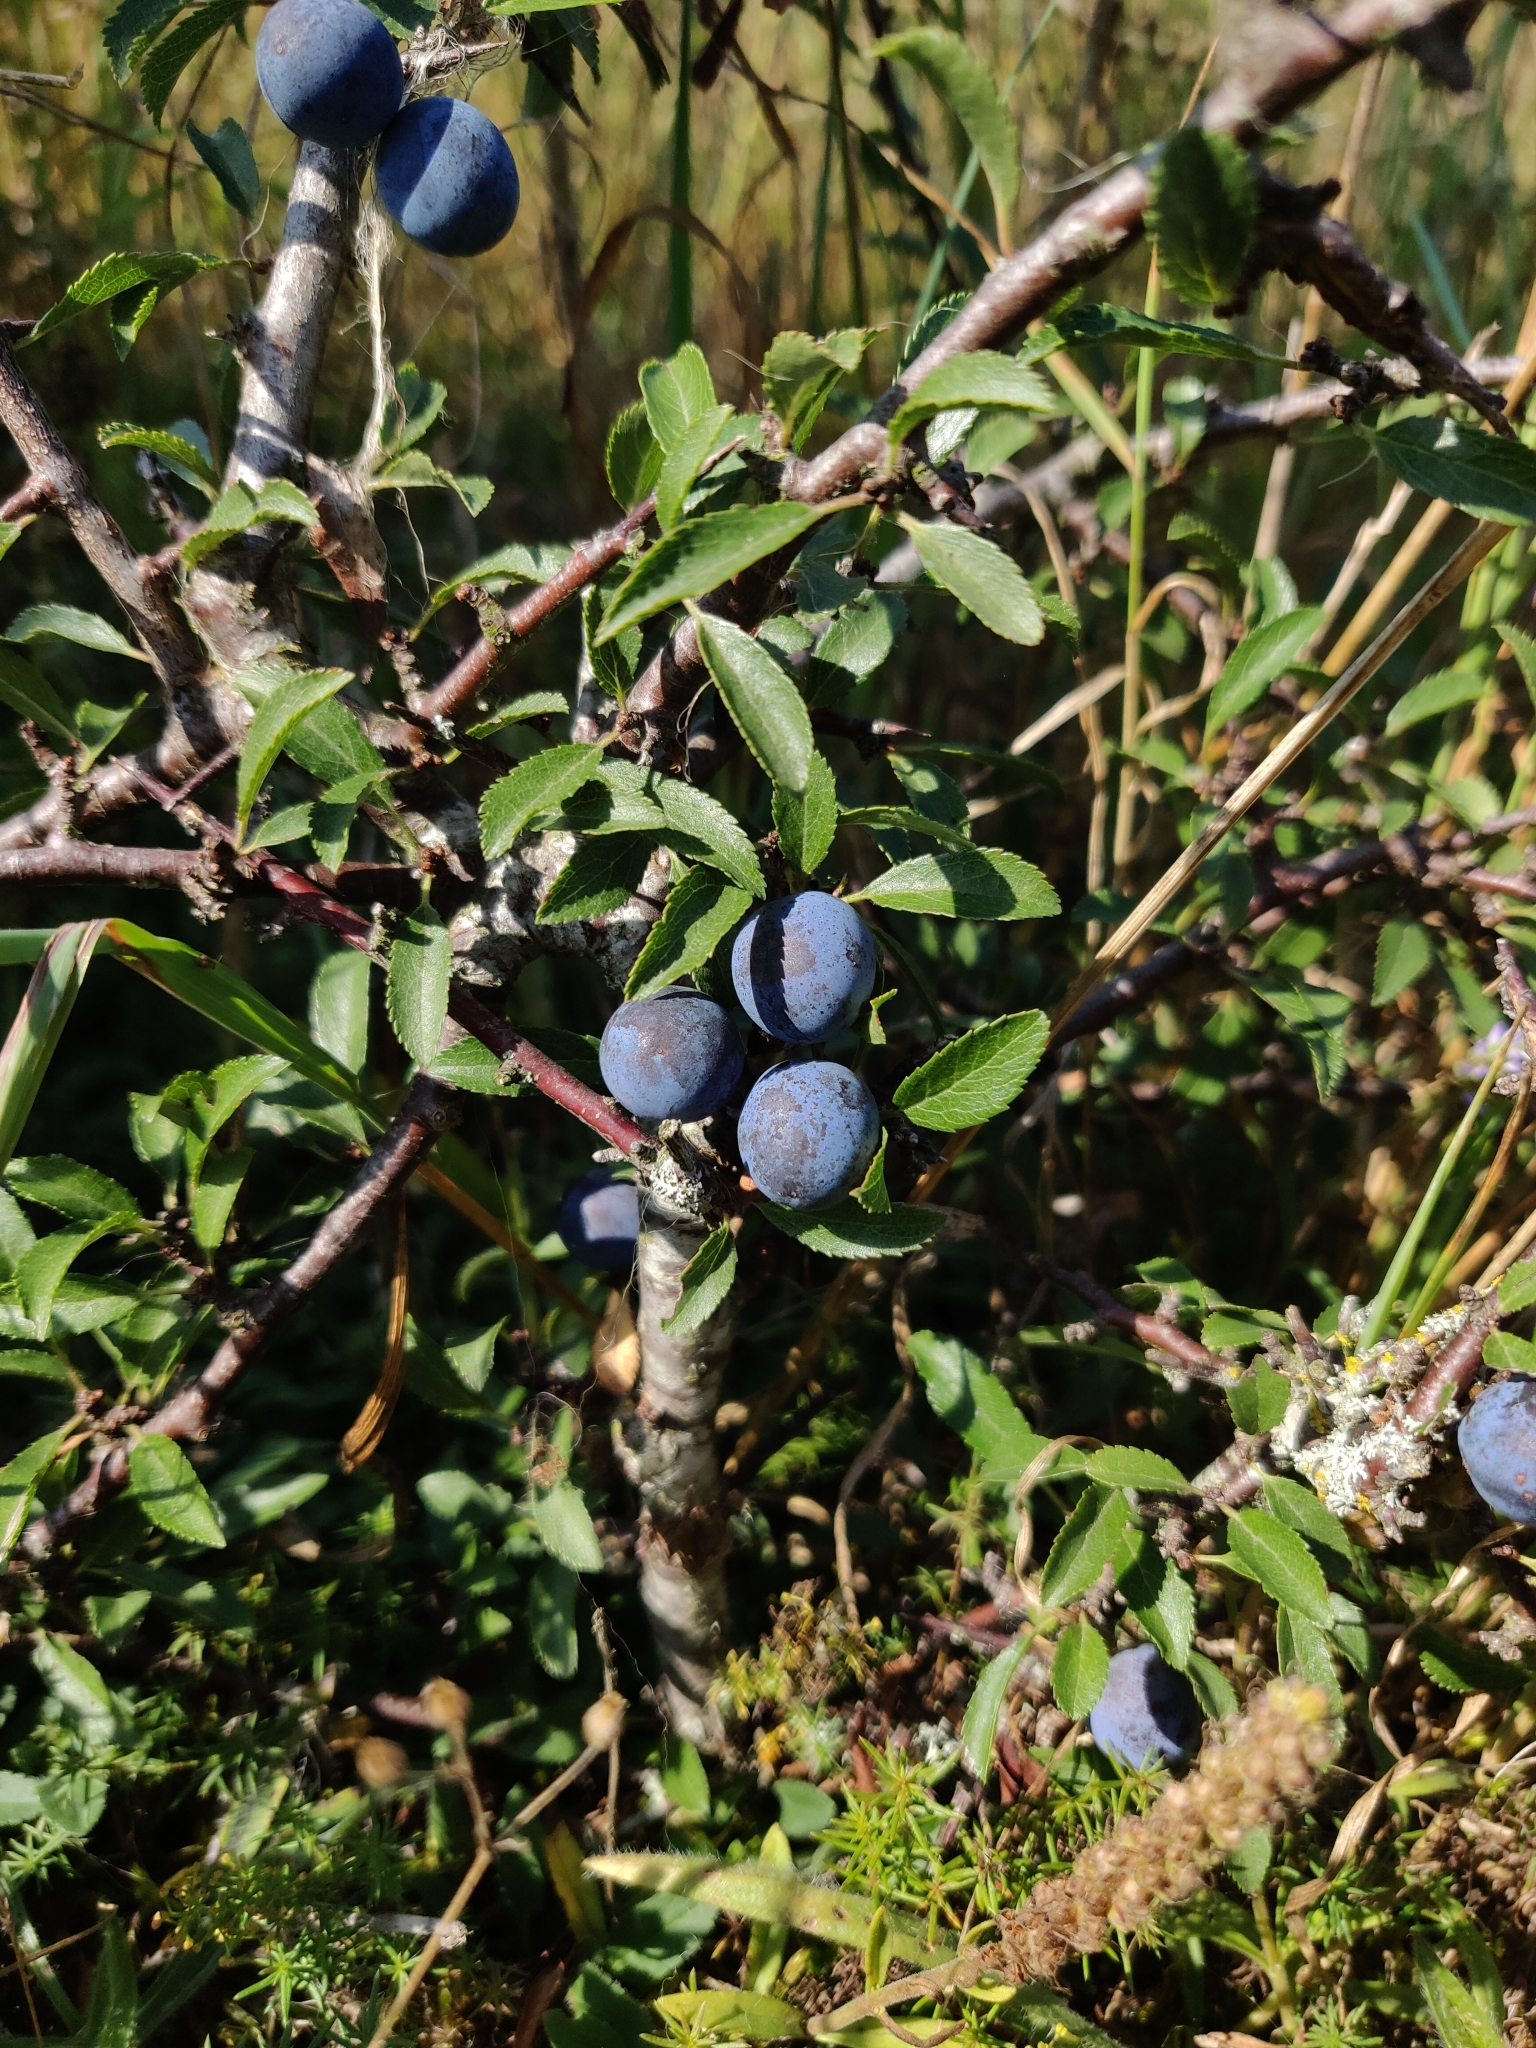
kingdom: Plantae
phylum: Tracheophyta
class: Magnoliopsida
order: Rosales
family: Rosaceae
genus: Prunus
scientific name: Prunus spinosa
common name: Blackthorn
